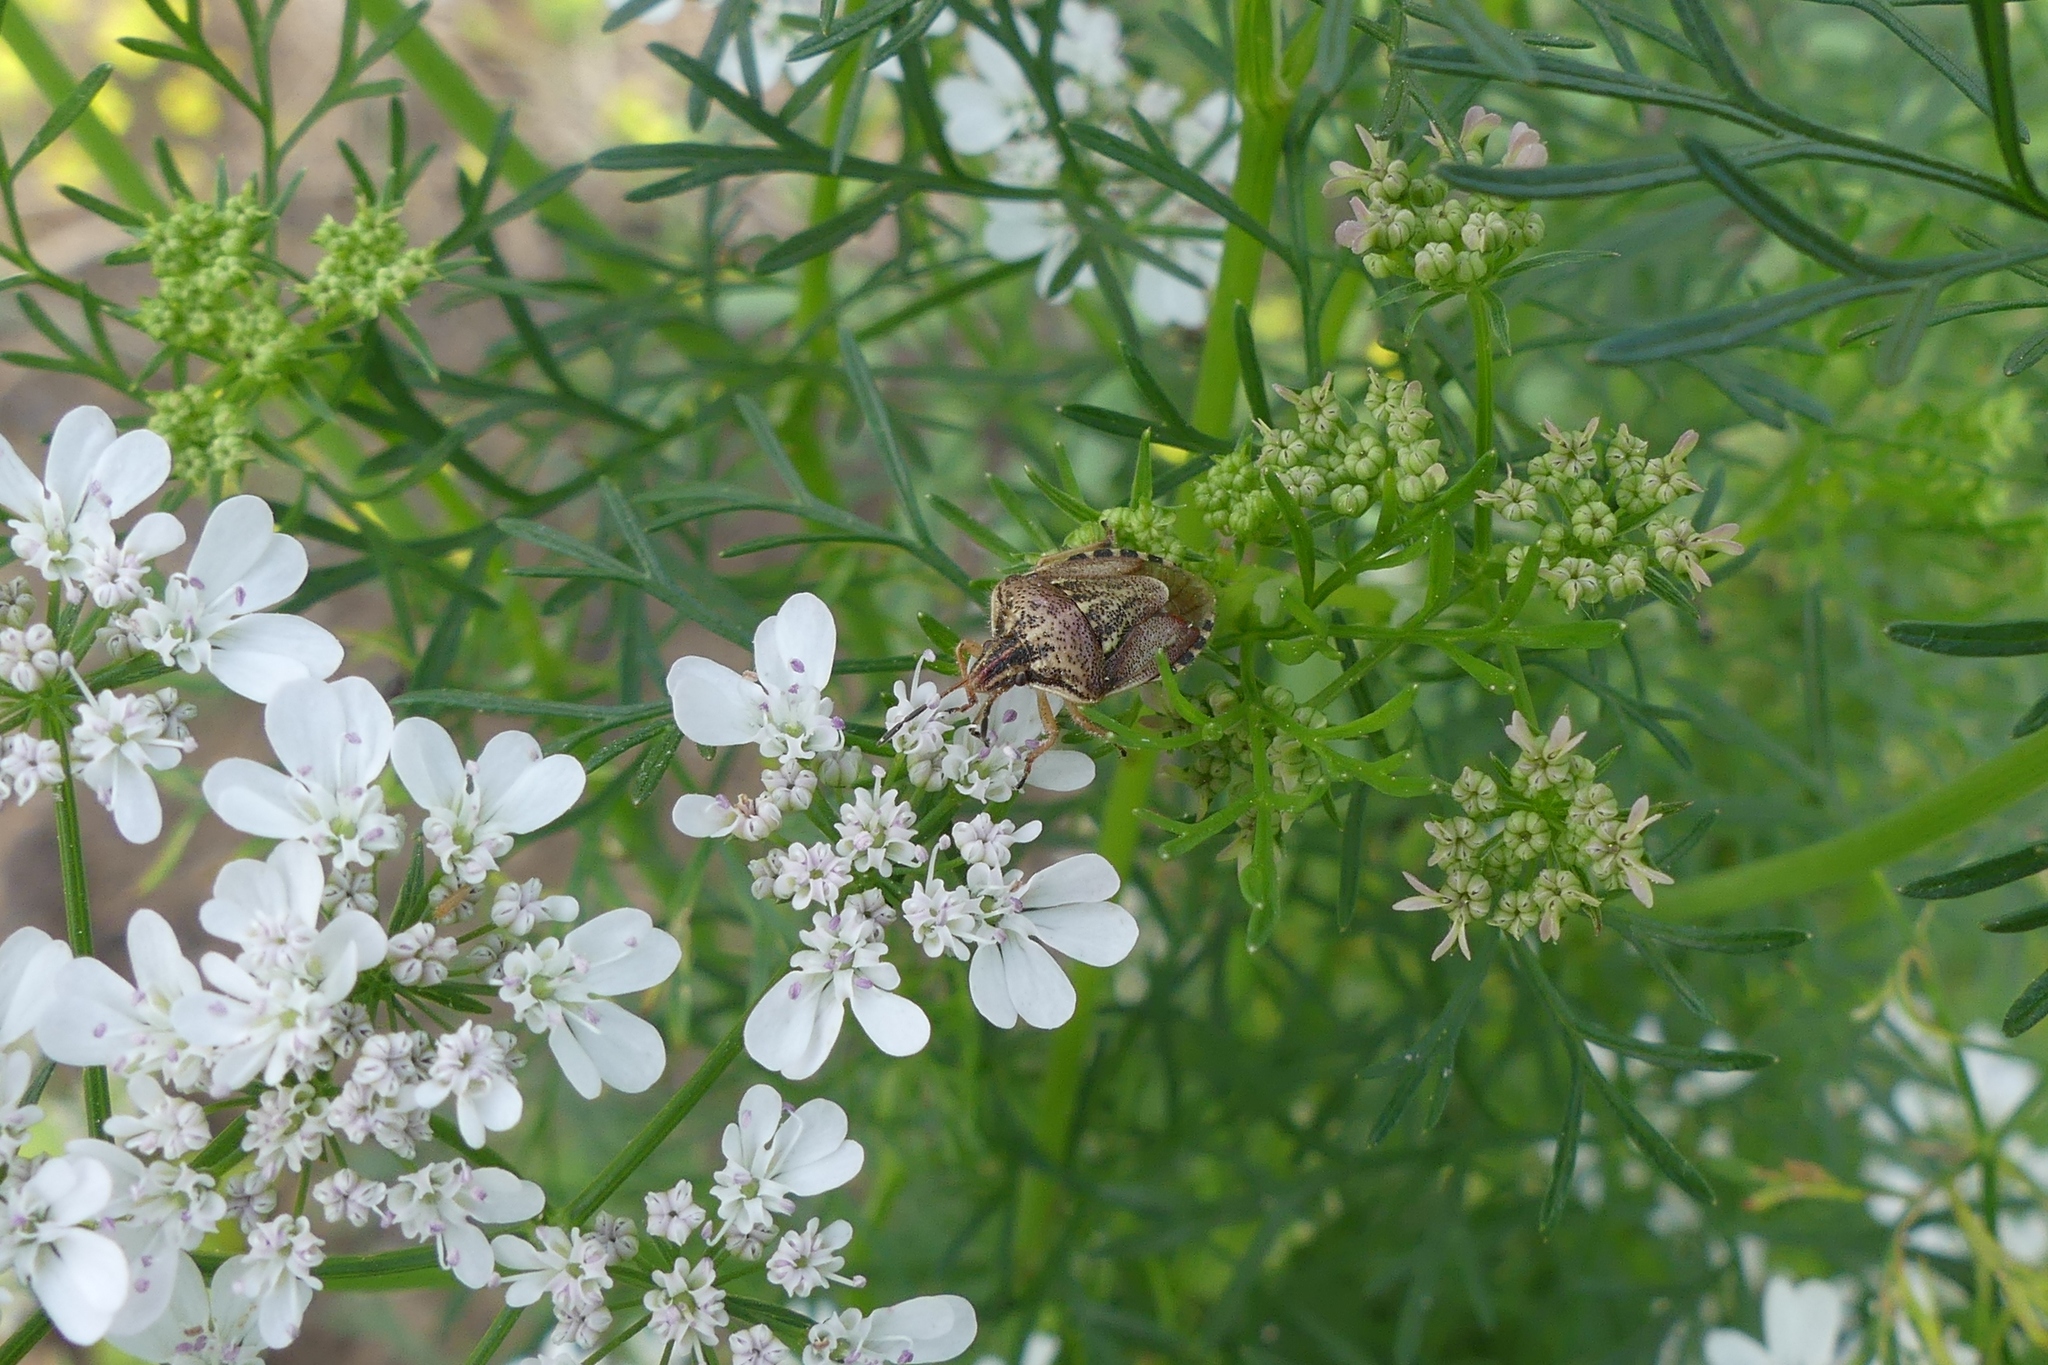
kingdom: Animalia
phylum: Arthropoda
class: Insecta
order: Hemiptera
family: Pentatomidae
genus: Trichopepla
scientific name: Trichopepla semivittata
